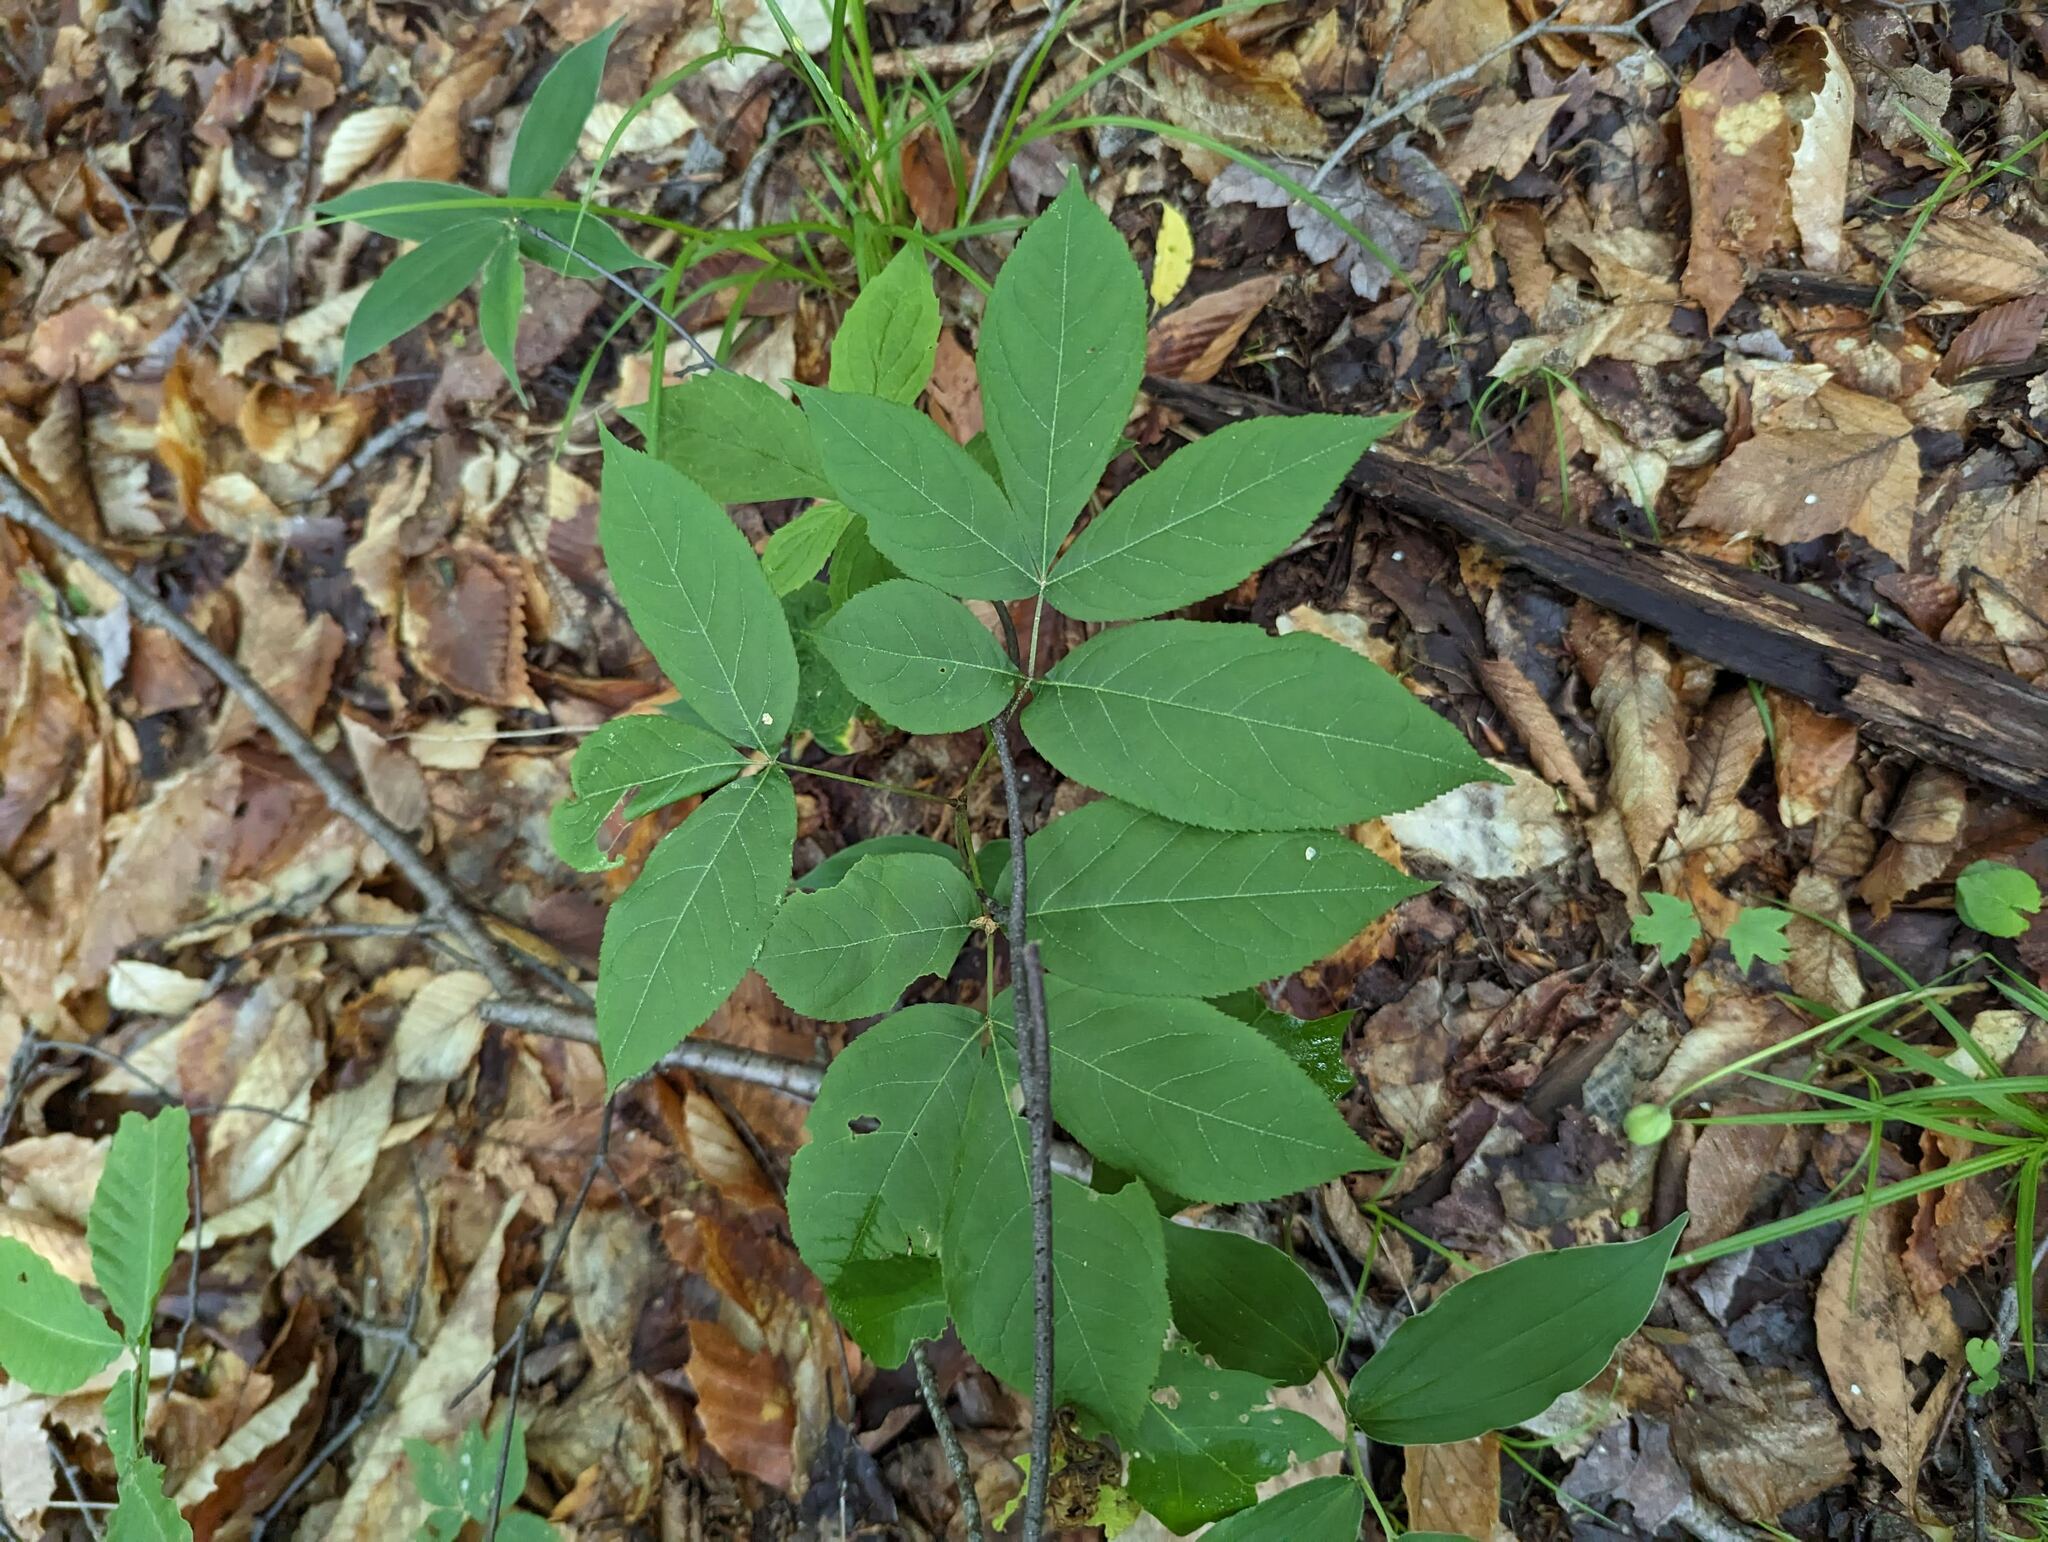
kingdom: Plantae
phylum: Tracheophyta
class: Magnoliopsida
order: Apiales
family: Araliaceae
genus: Aralia
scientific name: Aralia nudicaulis
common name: Wild sarsaparilla
